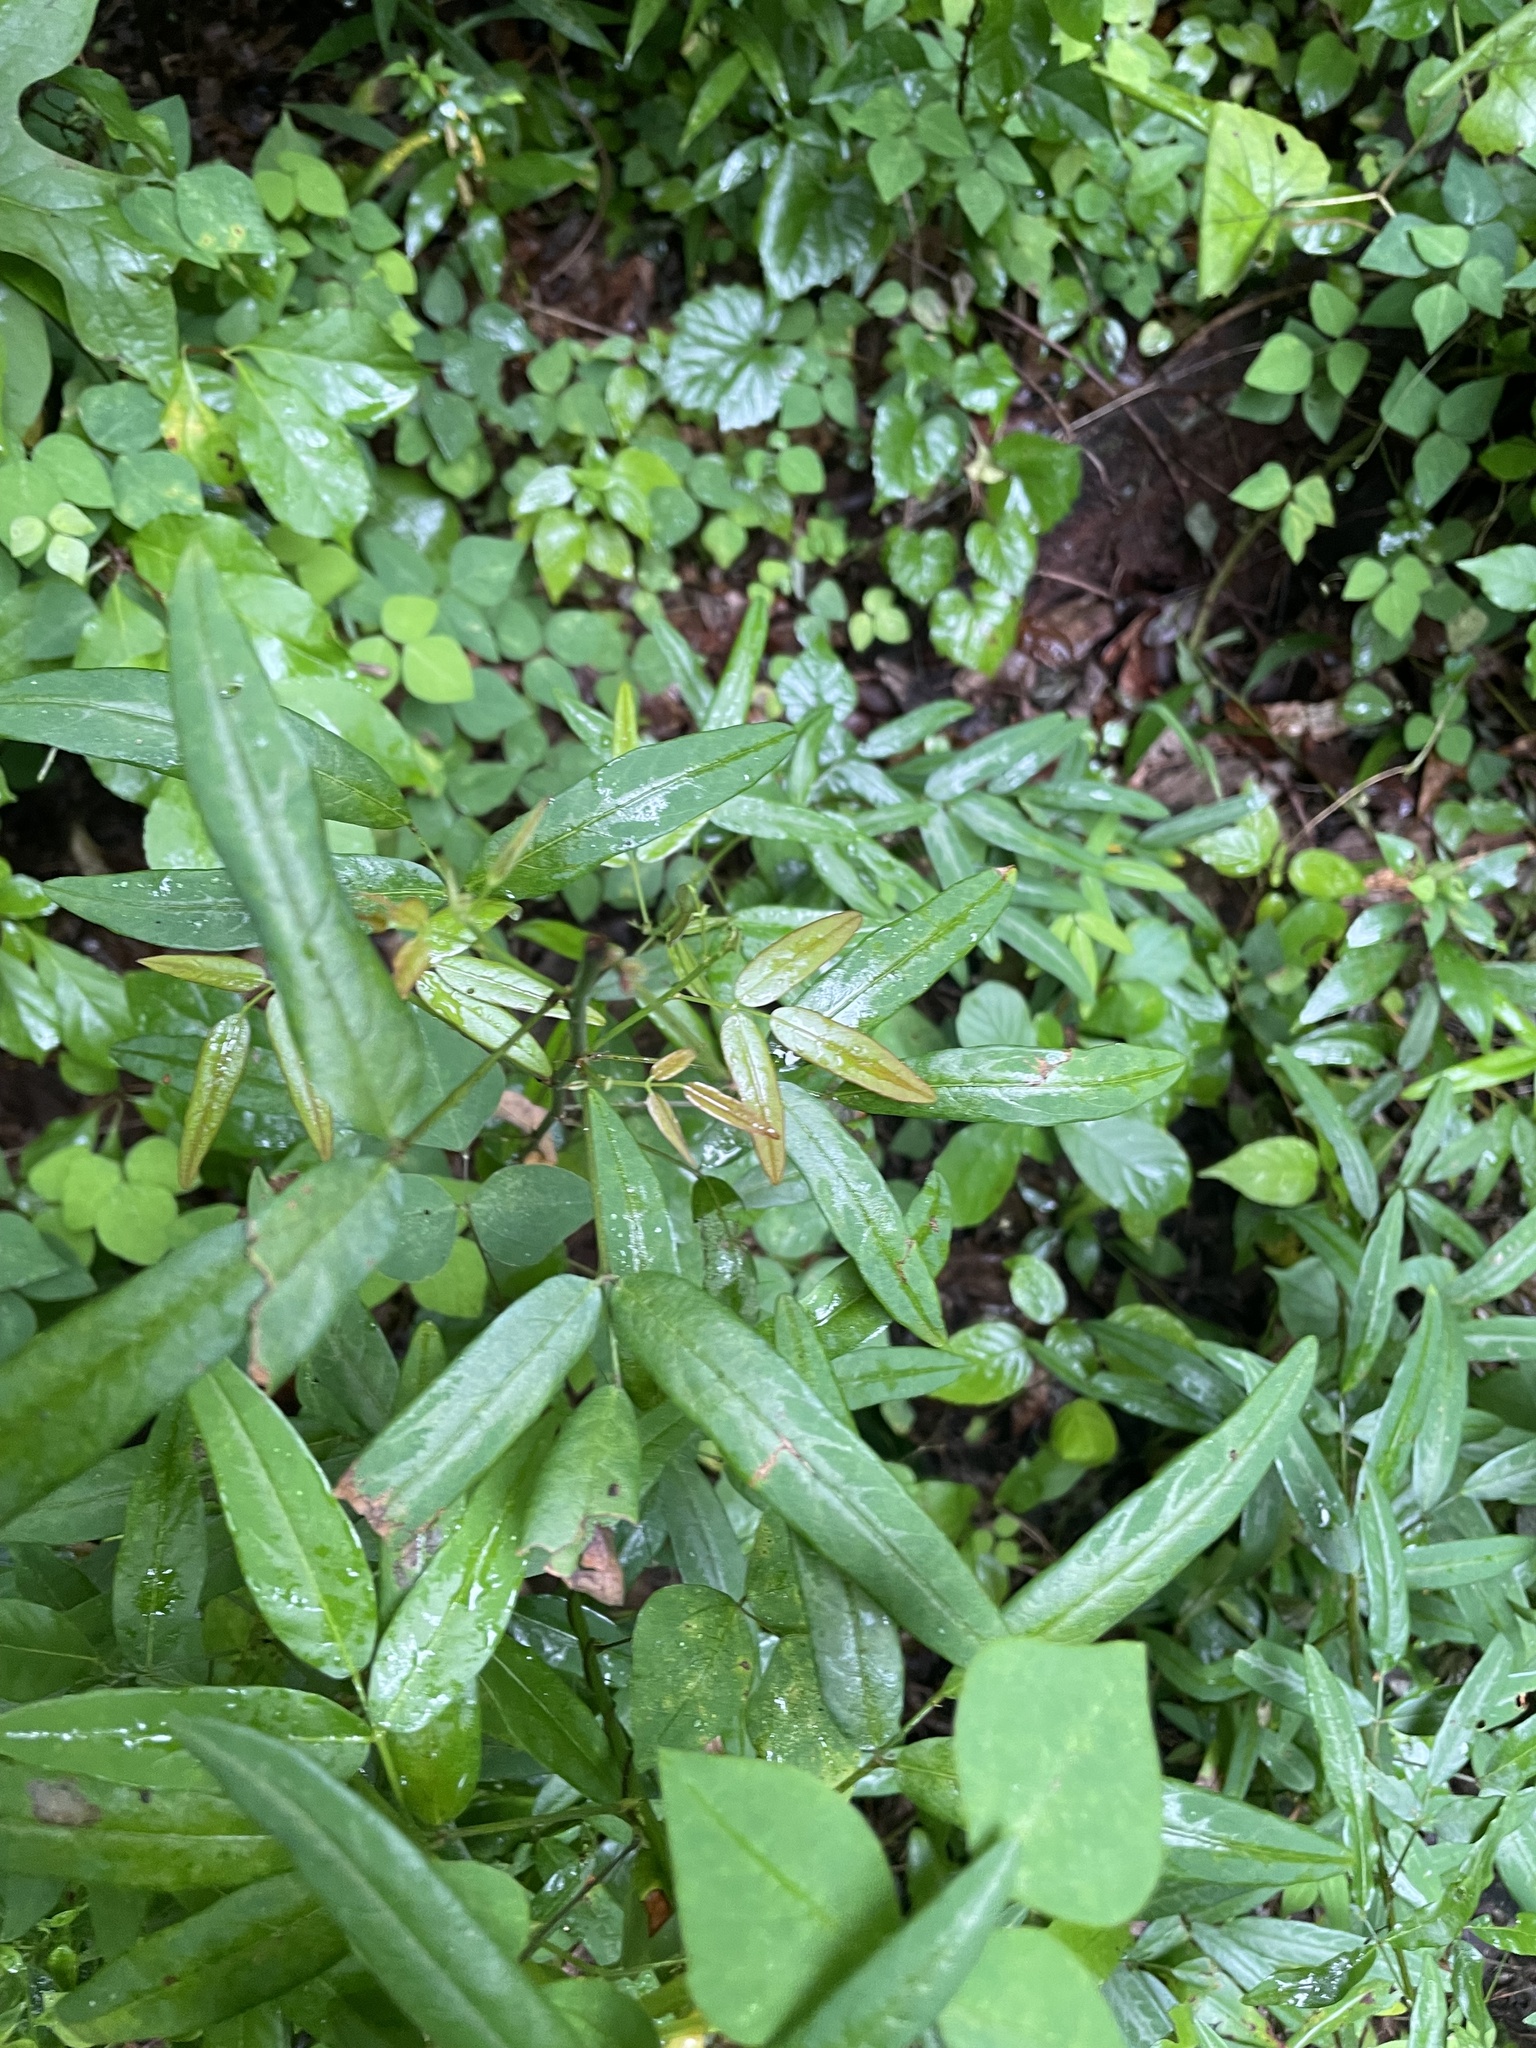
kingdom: Plantae
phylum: Tracheophyta
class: Magnoliopsida
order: Fabales
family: Fabaceae
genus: Desmodium
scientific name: Desmodium paniculatum
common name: Panicled tick-clover
